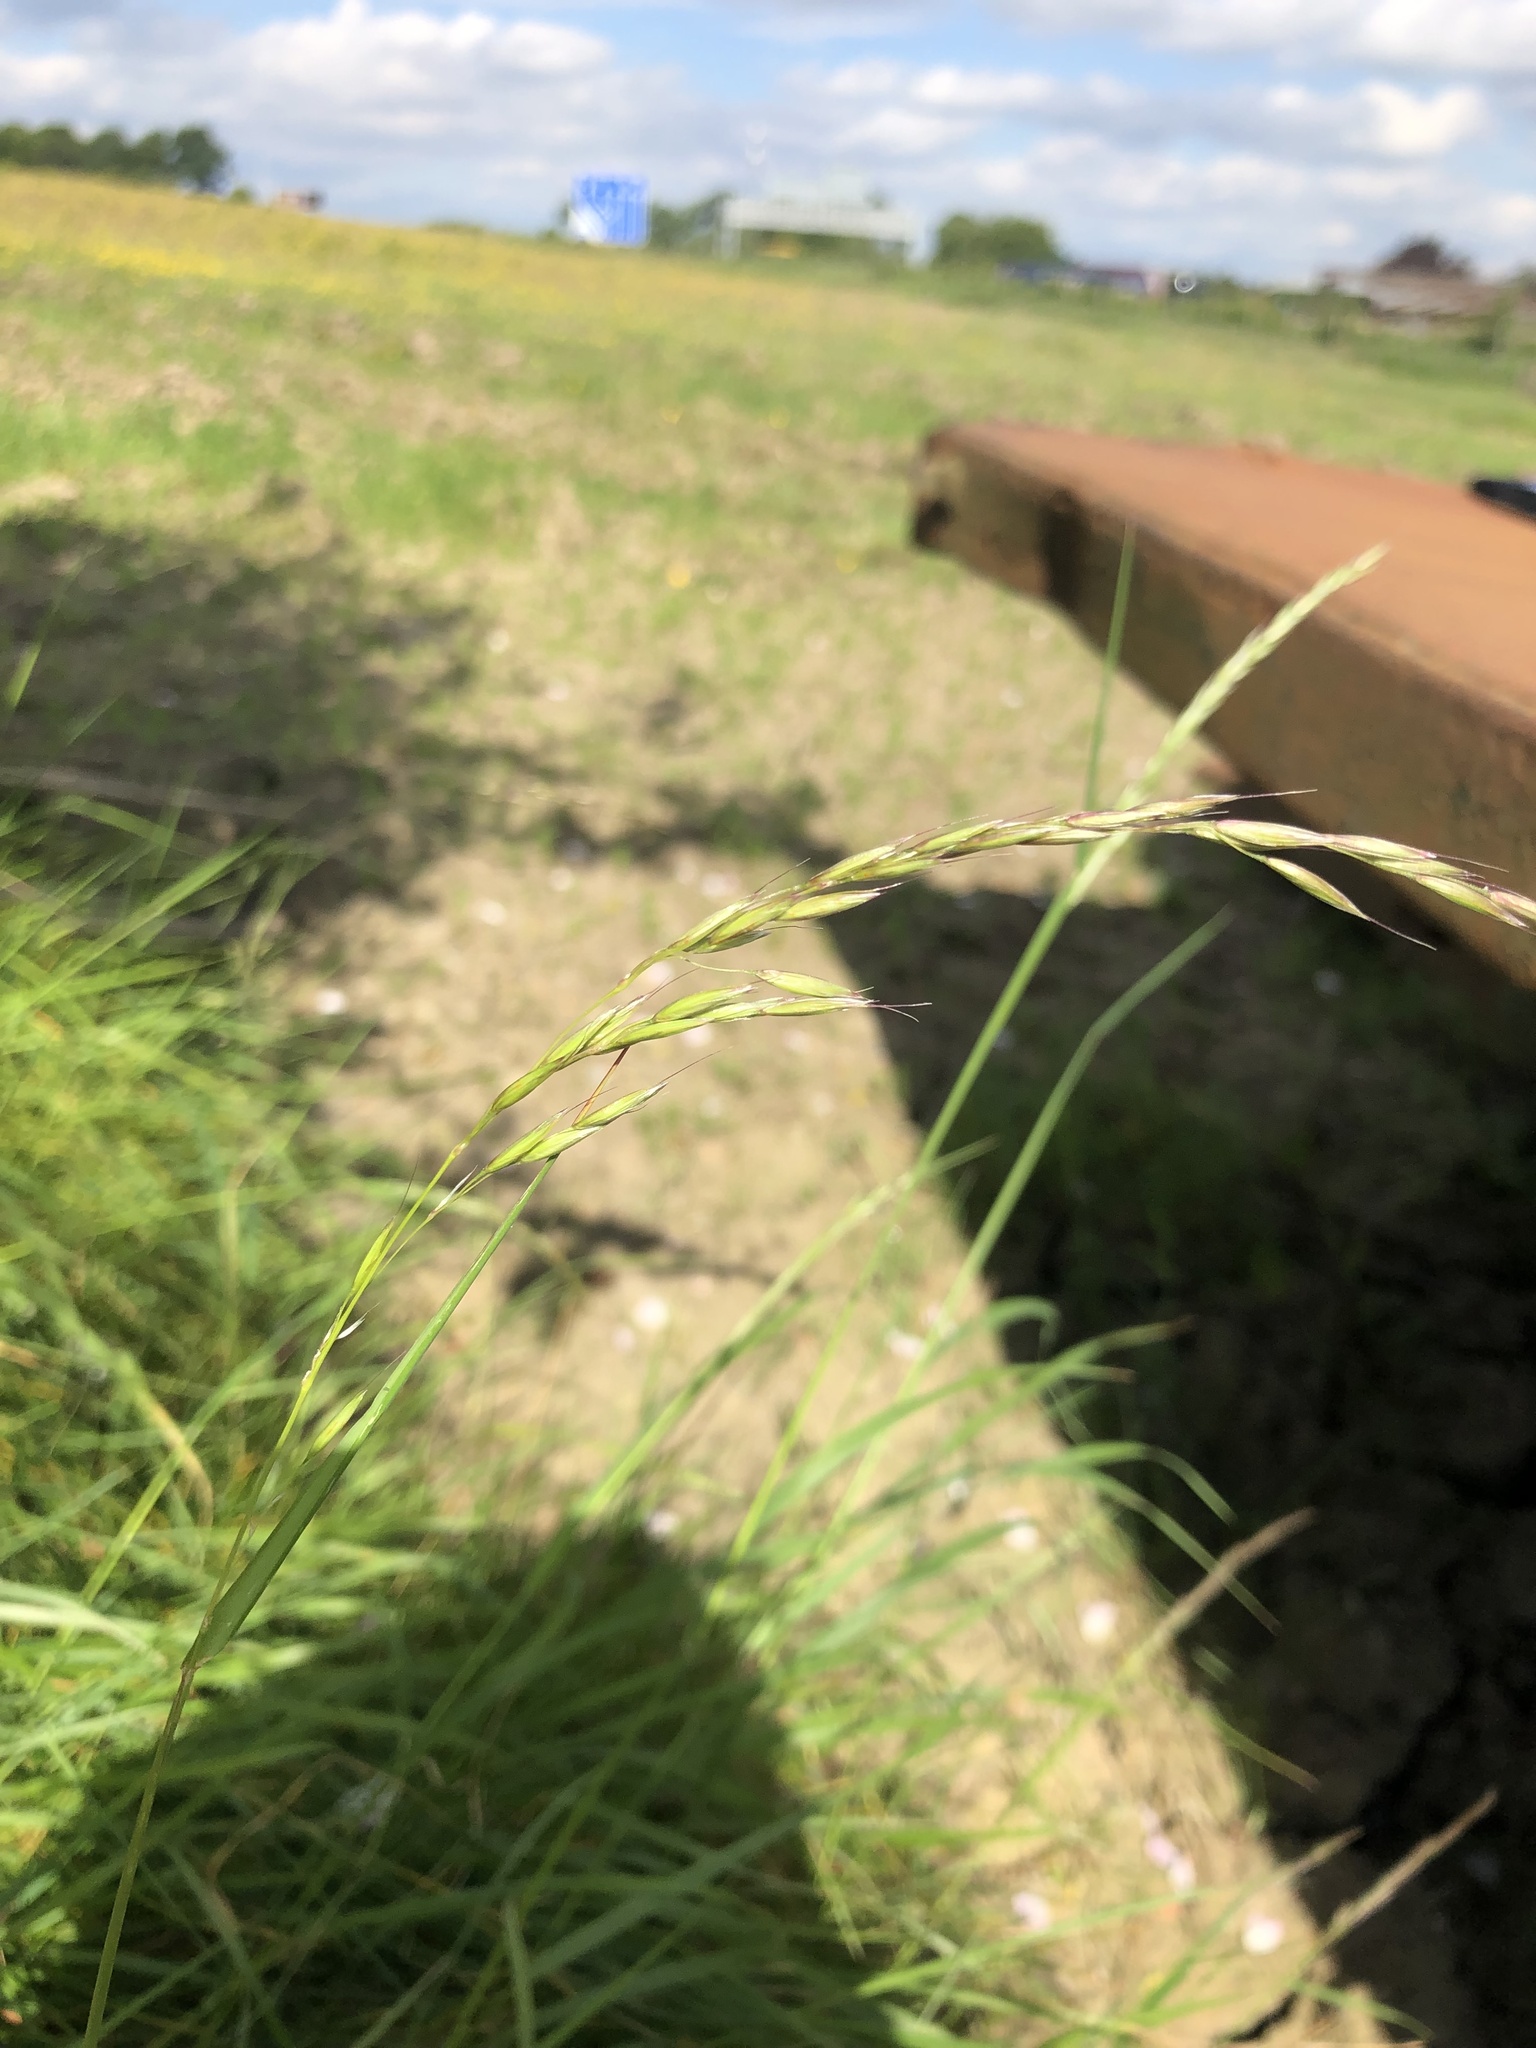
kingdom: Plantae
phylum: Tracheophyta
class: Liliopsida
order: Poales
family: Poaceae
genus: Arrhenatherum
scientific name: Arrhenatherum elatius
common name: Tall oatgrass
